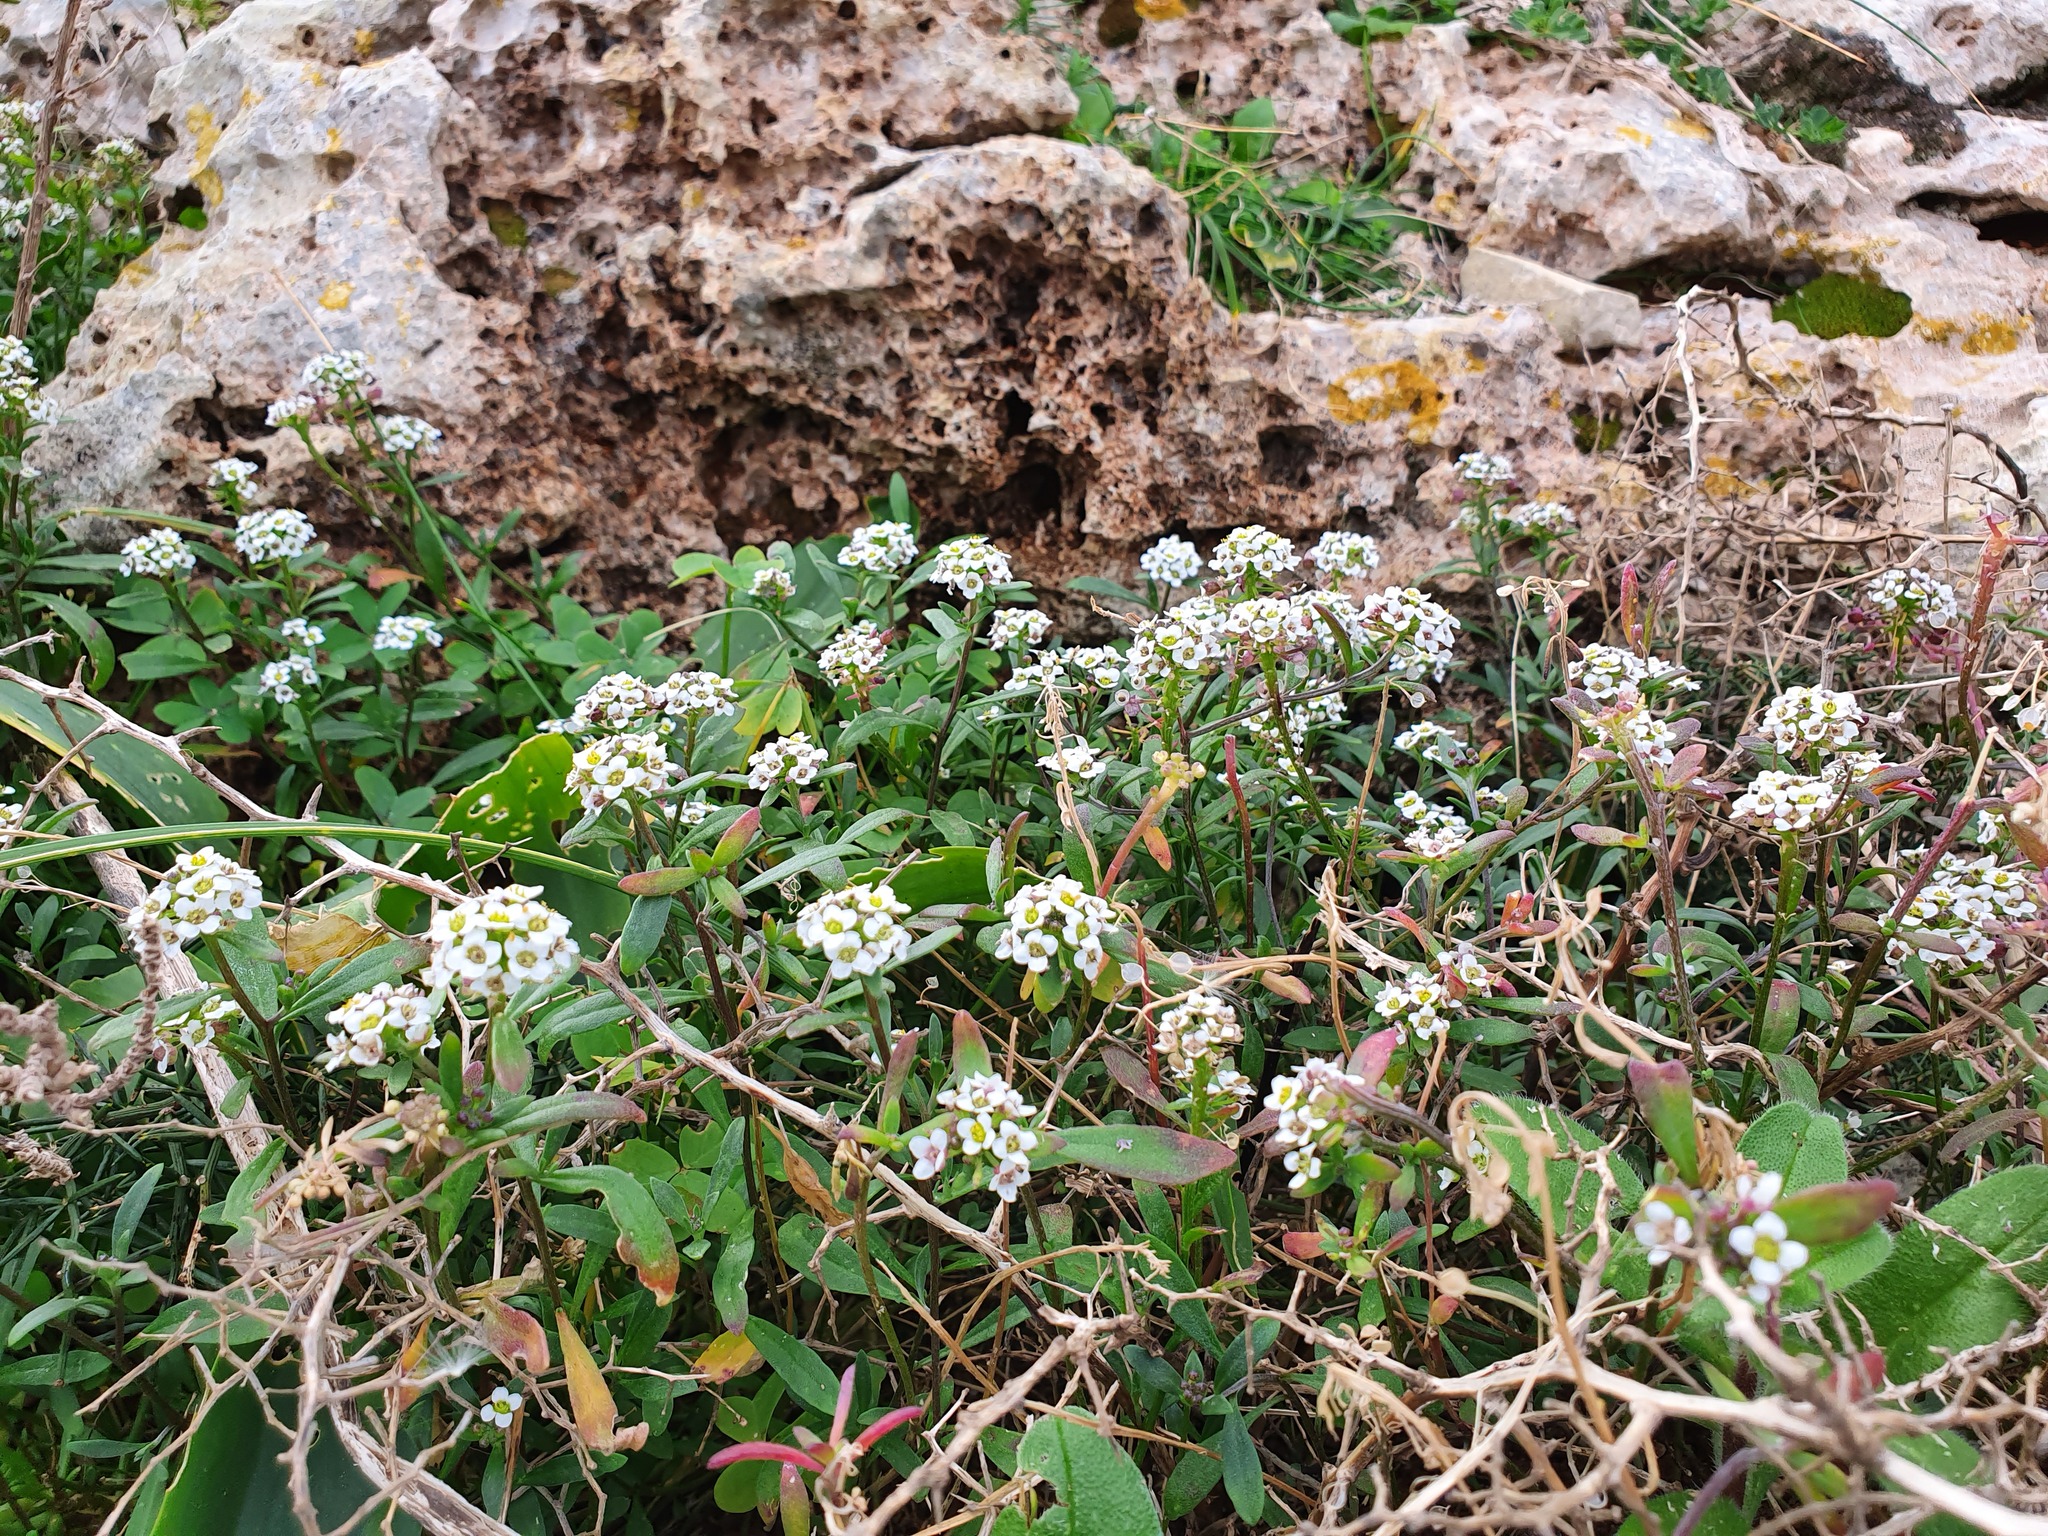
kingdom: Plantae
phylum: Tracheophyta
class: Magnoliopsida
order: Brassicales
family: Brassicaceae
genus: Lobularia
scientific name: Lobularia maritima
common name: Sweet alison
